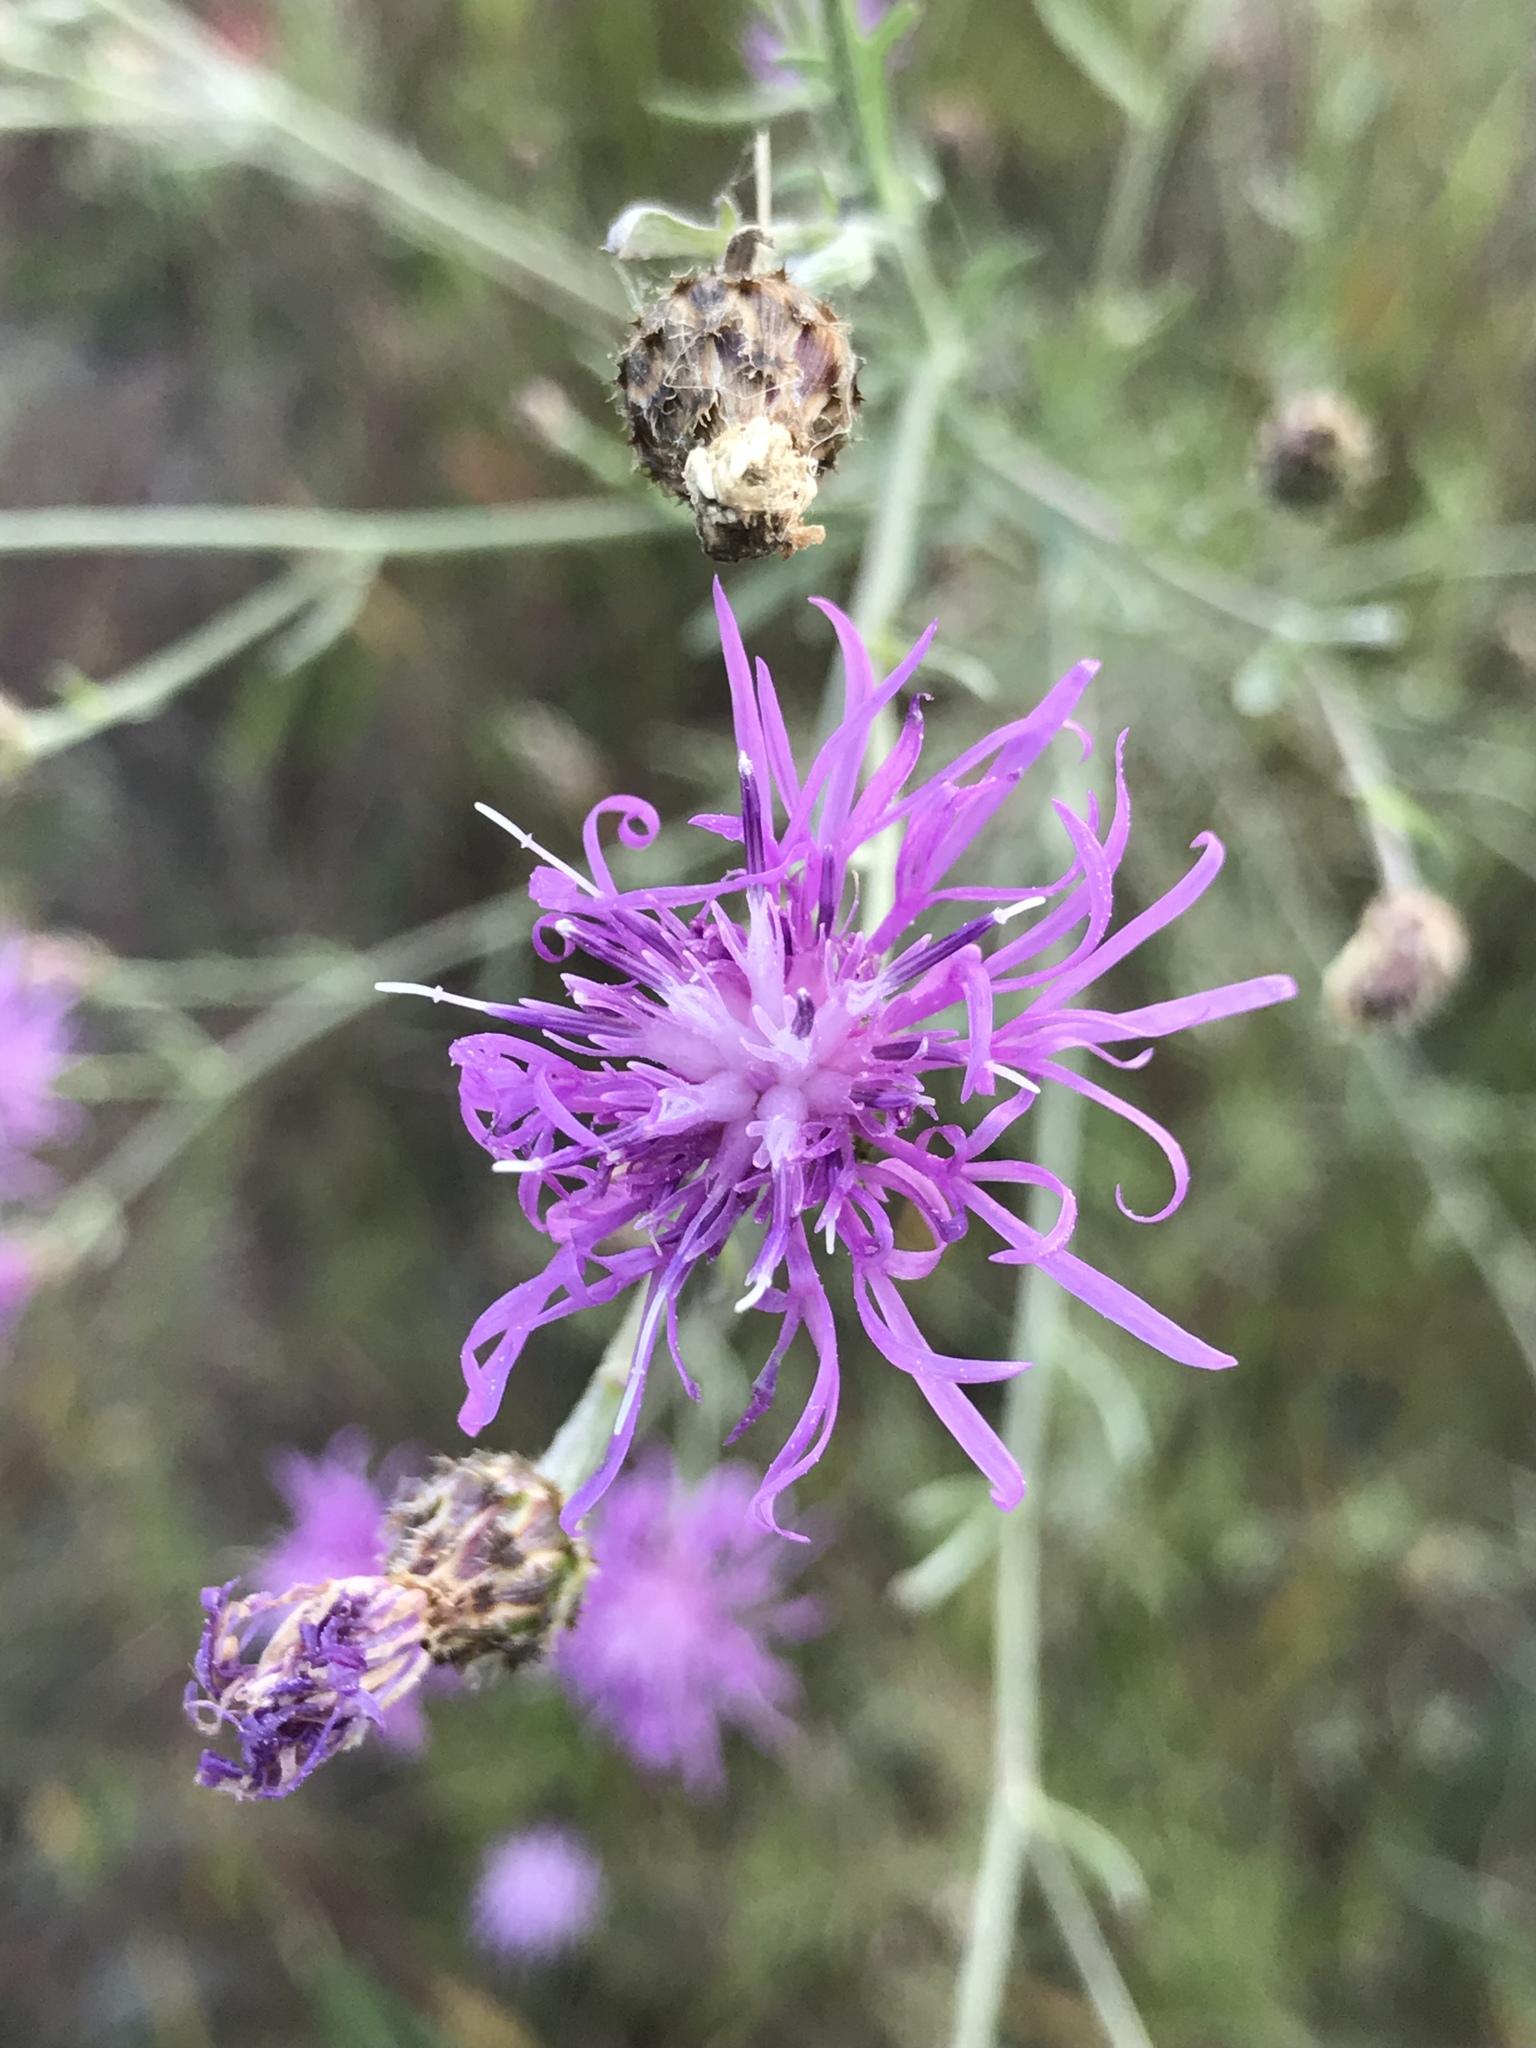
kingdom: Plantae
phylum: Tracheophyta
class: Magnoliopsida
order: Asterales
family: Asteraceae
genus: Centaurea
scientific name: Centaurea stoebe
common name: Spotted knapweed
